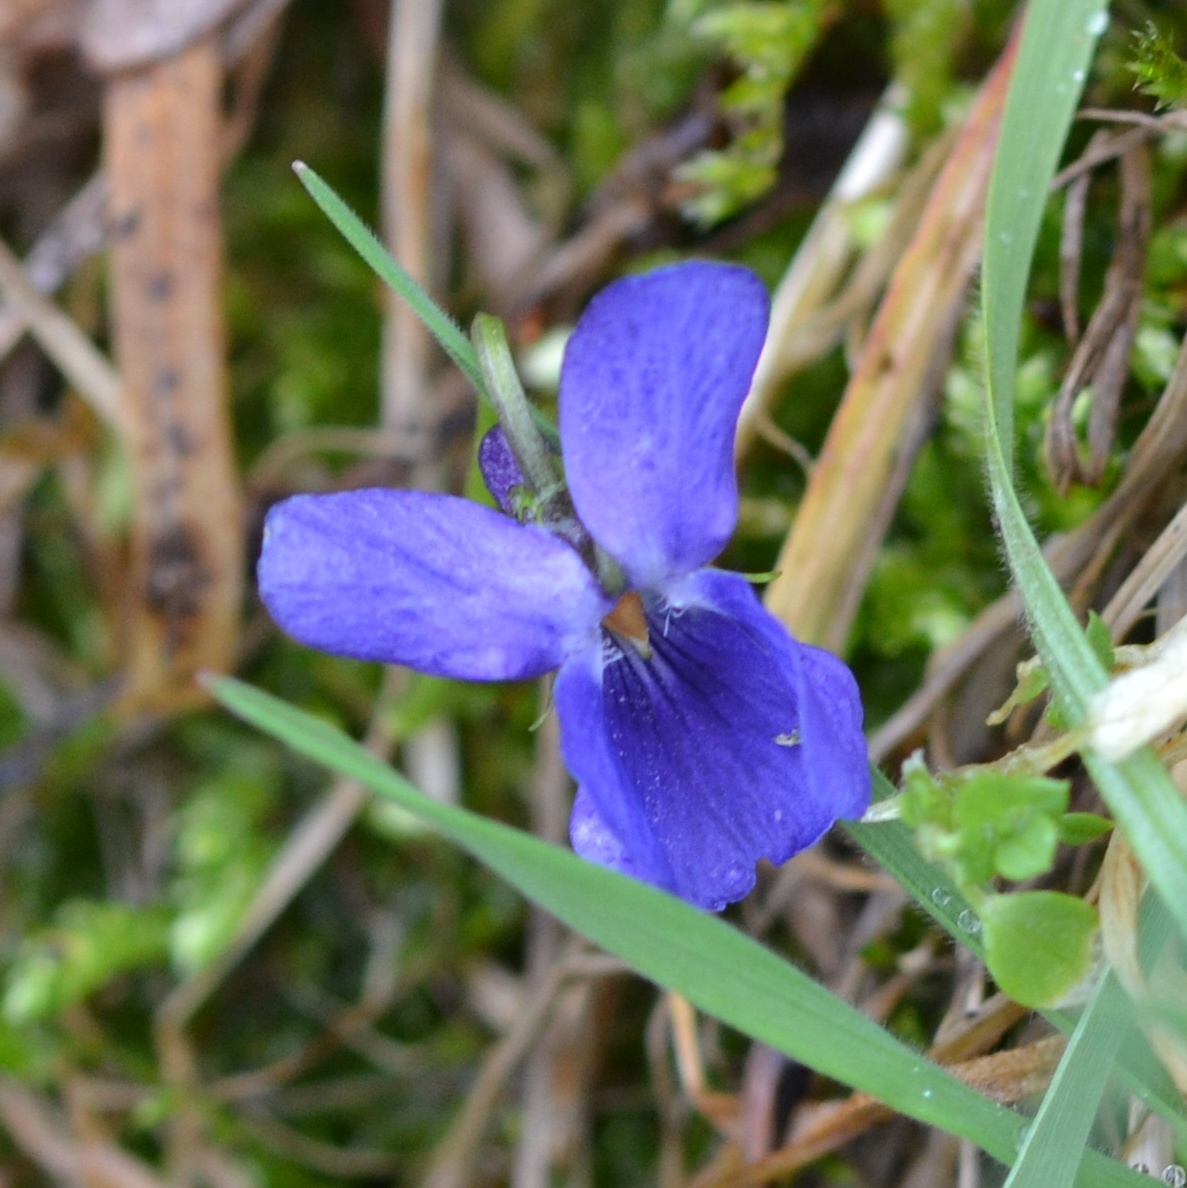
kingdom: Plantae
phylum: Tracheophyta
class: Magnoliopsida
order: Malpighiales
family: Violaceae
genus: Viola
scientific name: Viola suavis
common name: Russian violet
